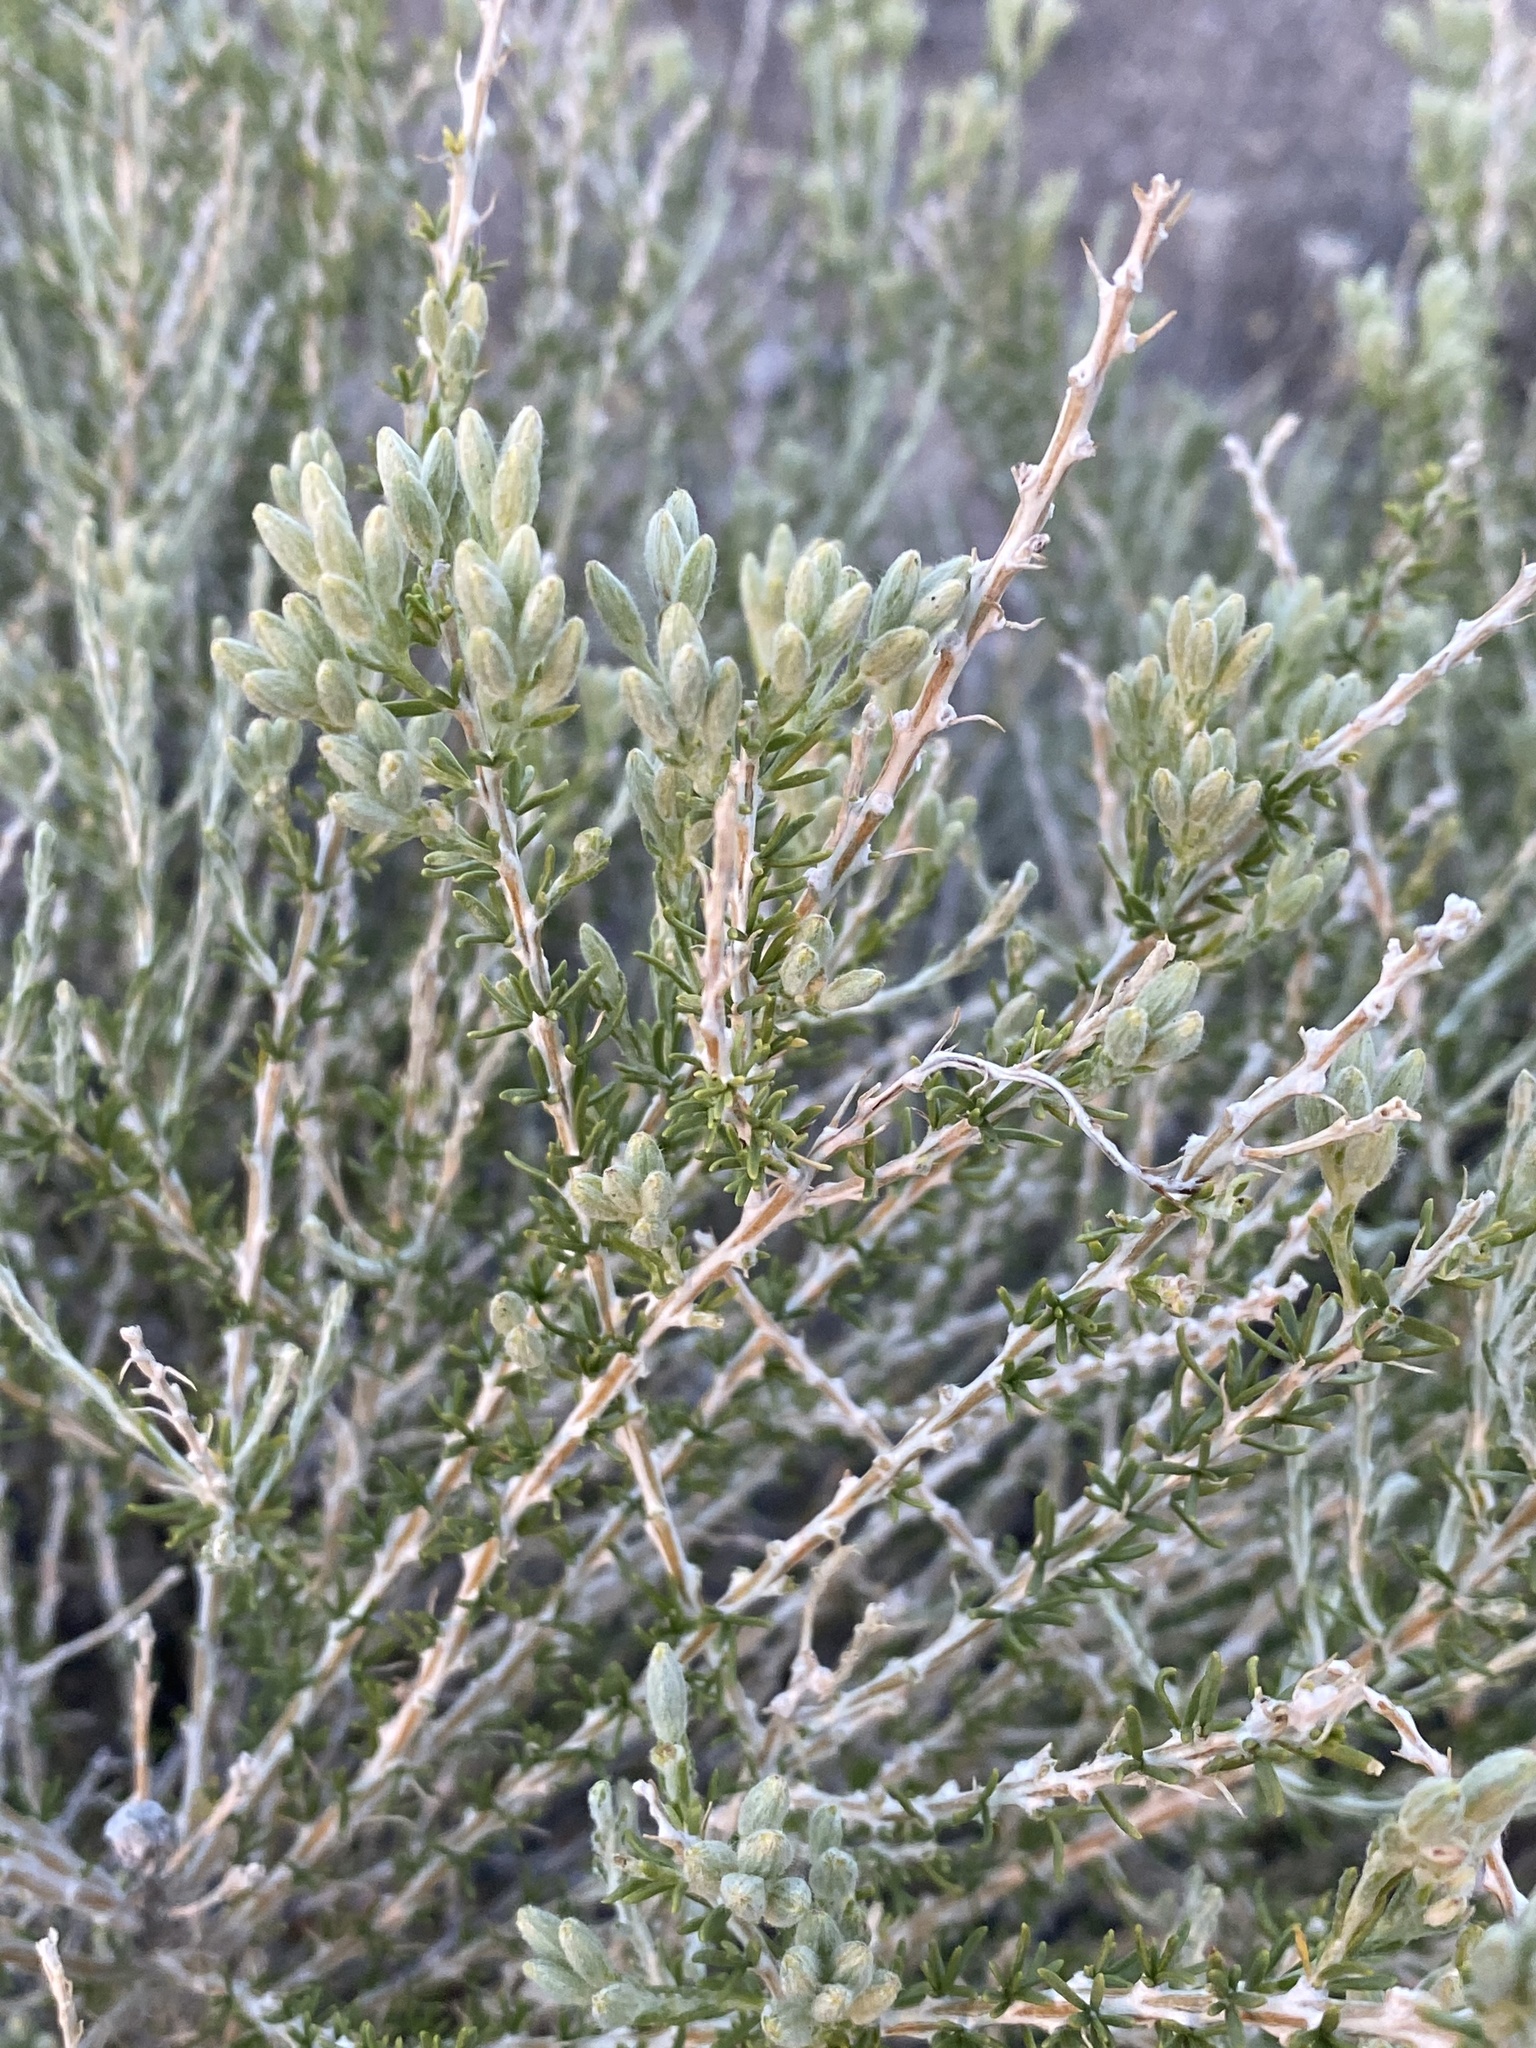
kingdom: Plantae
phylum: Tracheophyta
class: Magnoliopsida
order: Asterales
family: Asteraceae
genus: Tetradymia
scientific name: Tetradymia glabrata
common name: Smooth tetradymia
